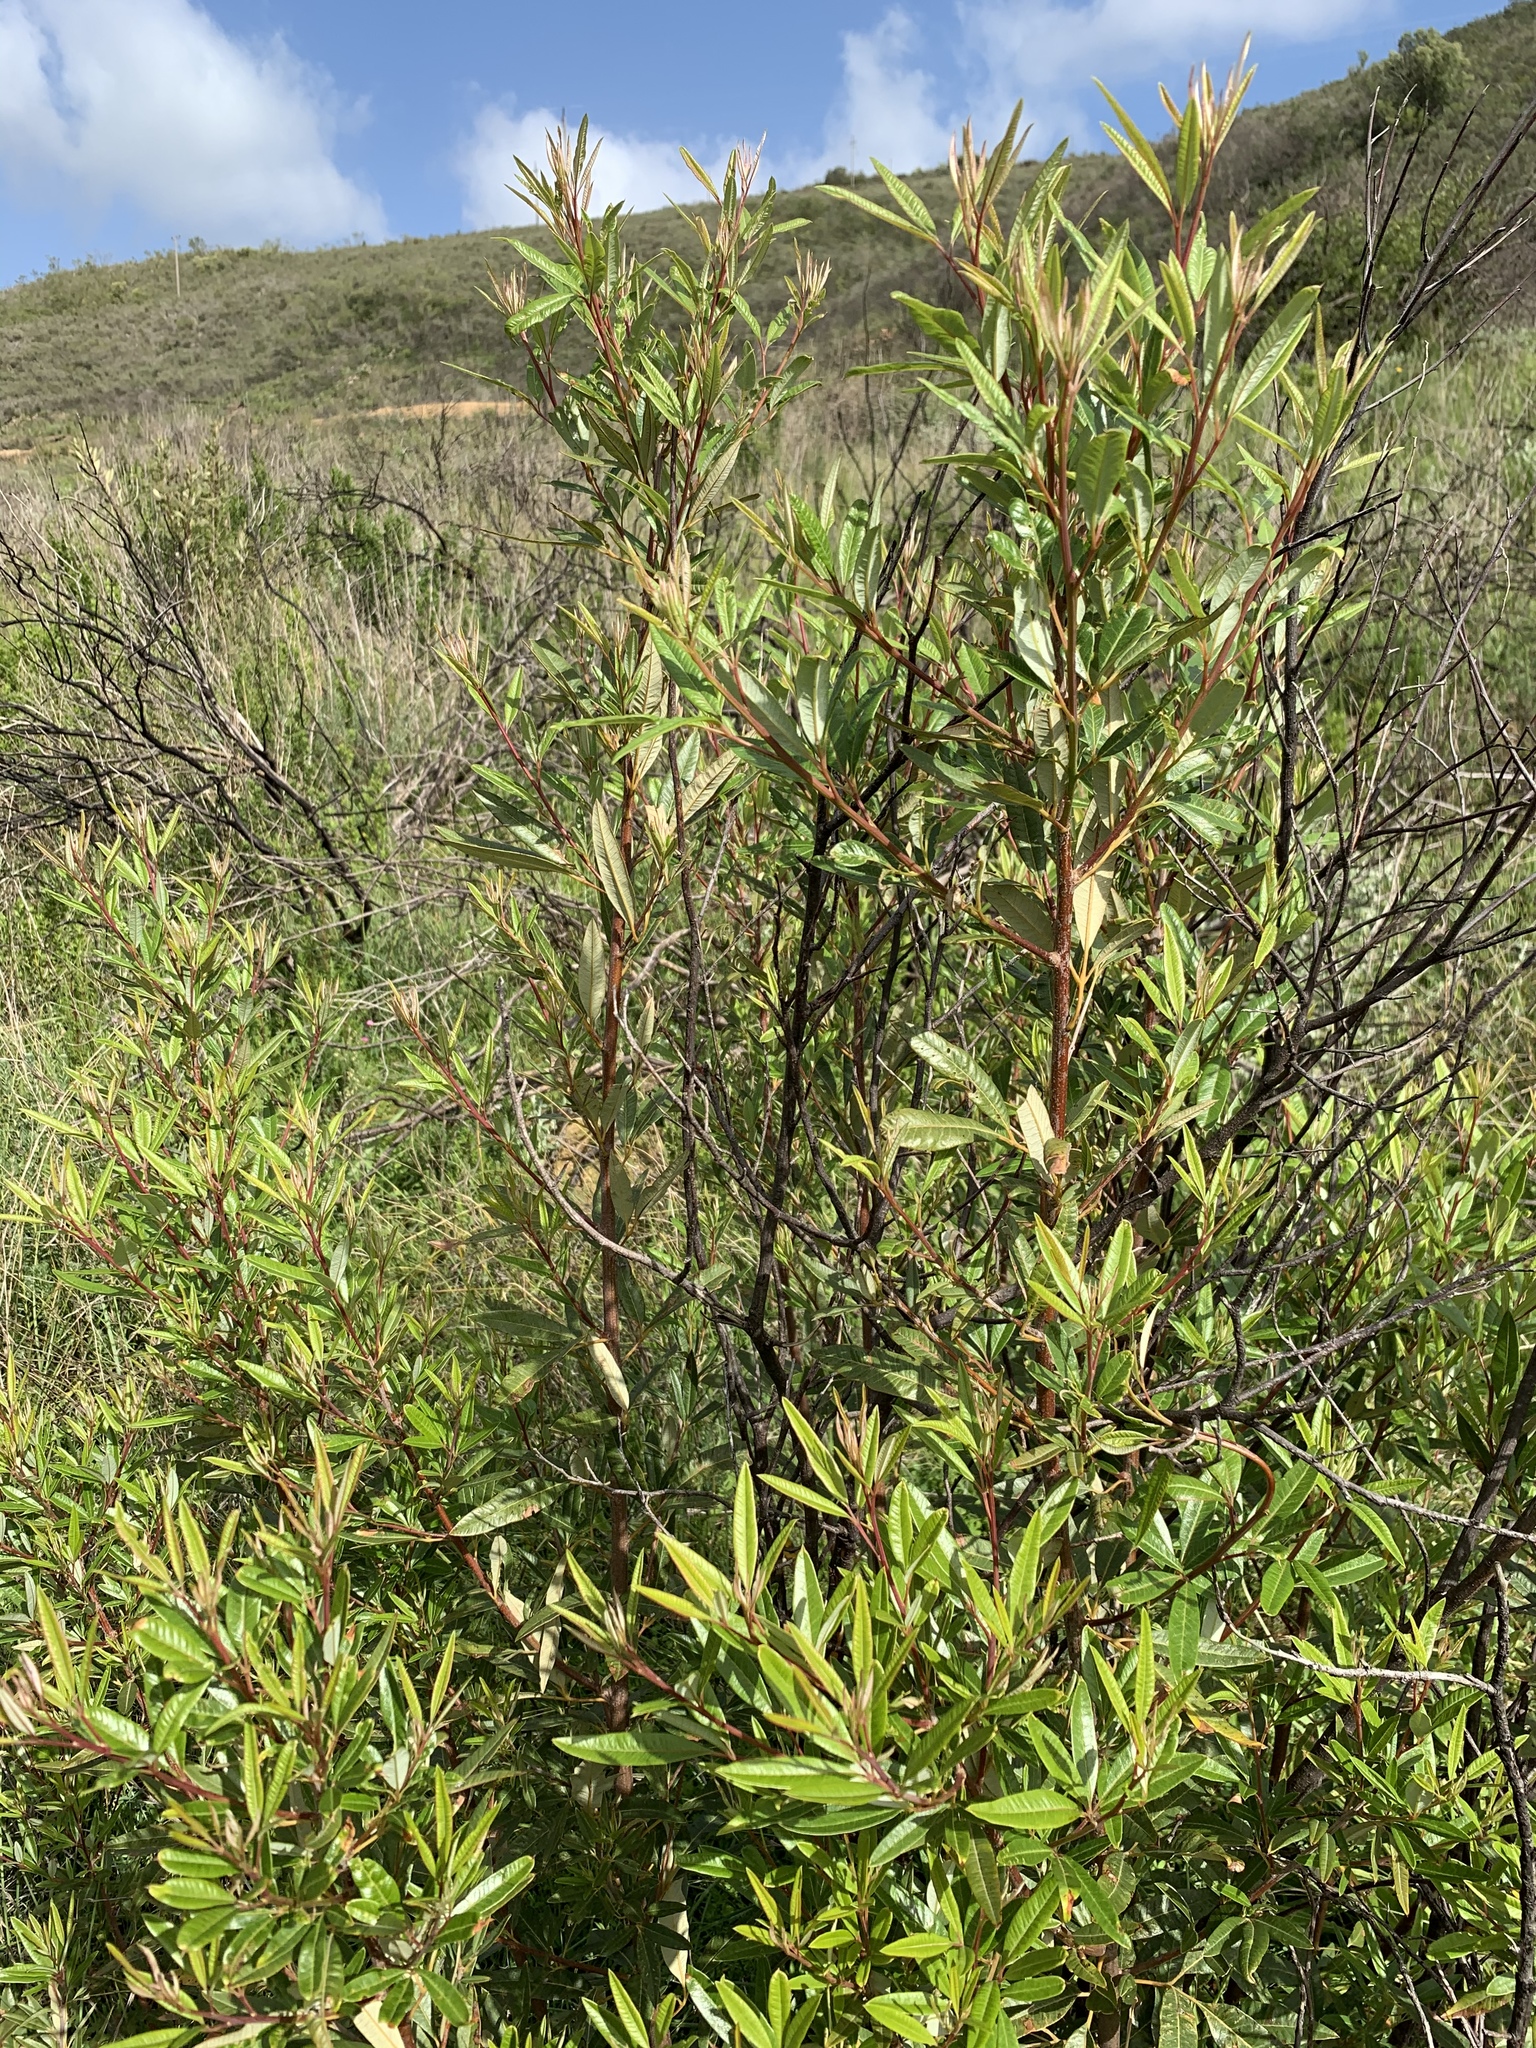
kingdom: Plantae
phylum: Tracheophyta
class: Magnoliopsida
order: Sapindales
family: Anacardiaceae
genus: Searsia
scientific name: Searsia angustifolia
